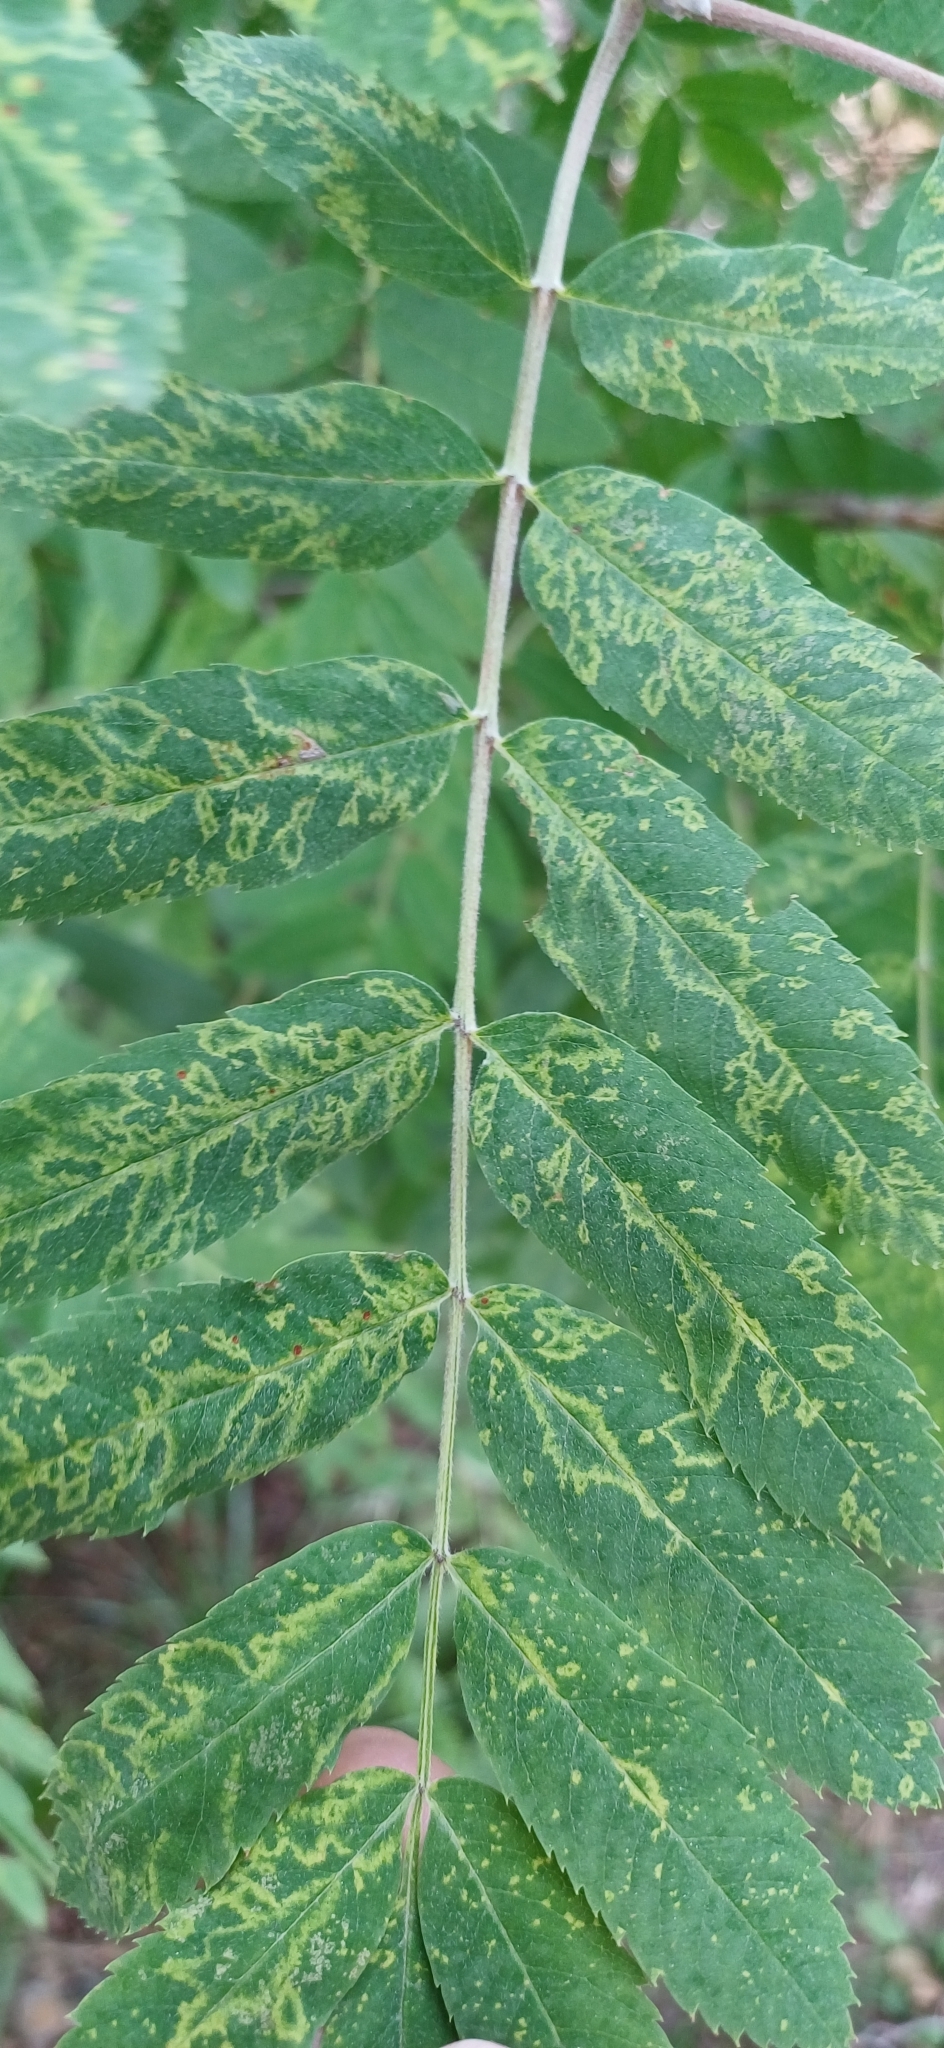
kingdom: Viruses
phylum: Negarnaviricota
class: Ellioviricetes
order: Bunyavirales
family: Fimoviridae
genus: Emaravirus
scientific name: Emaravirus sorbi
